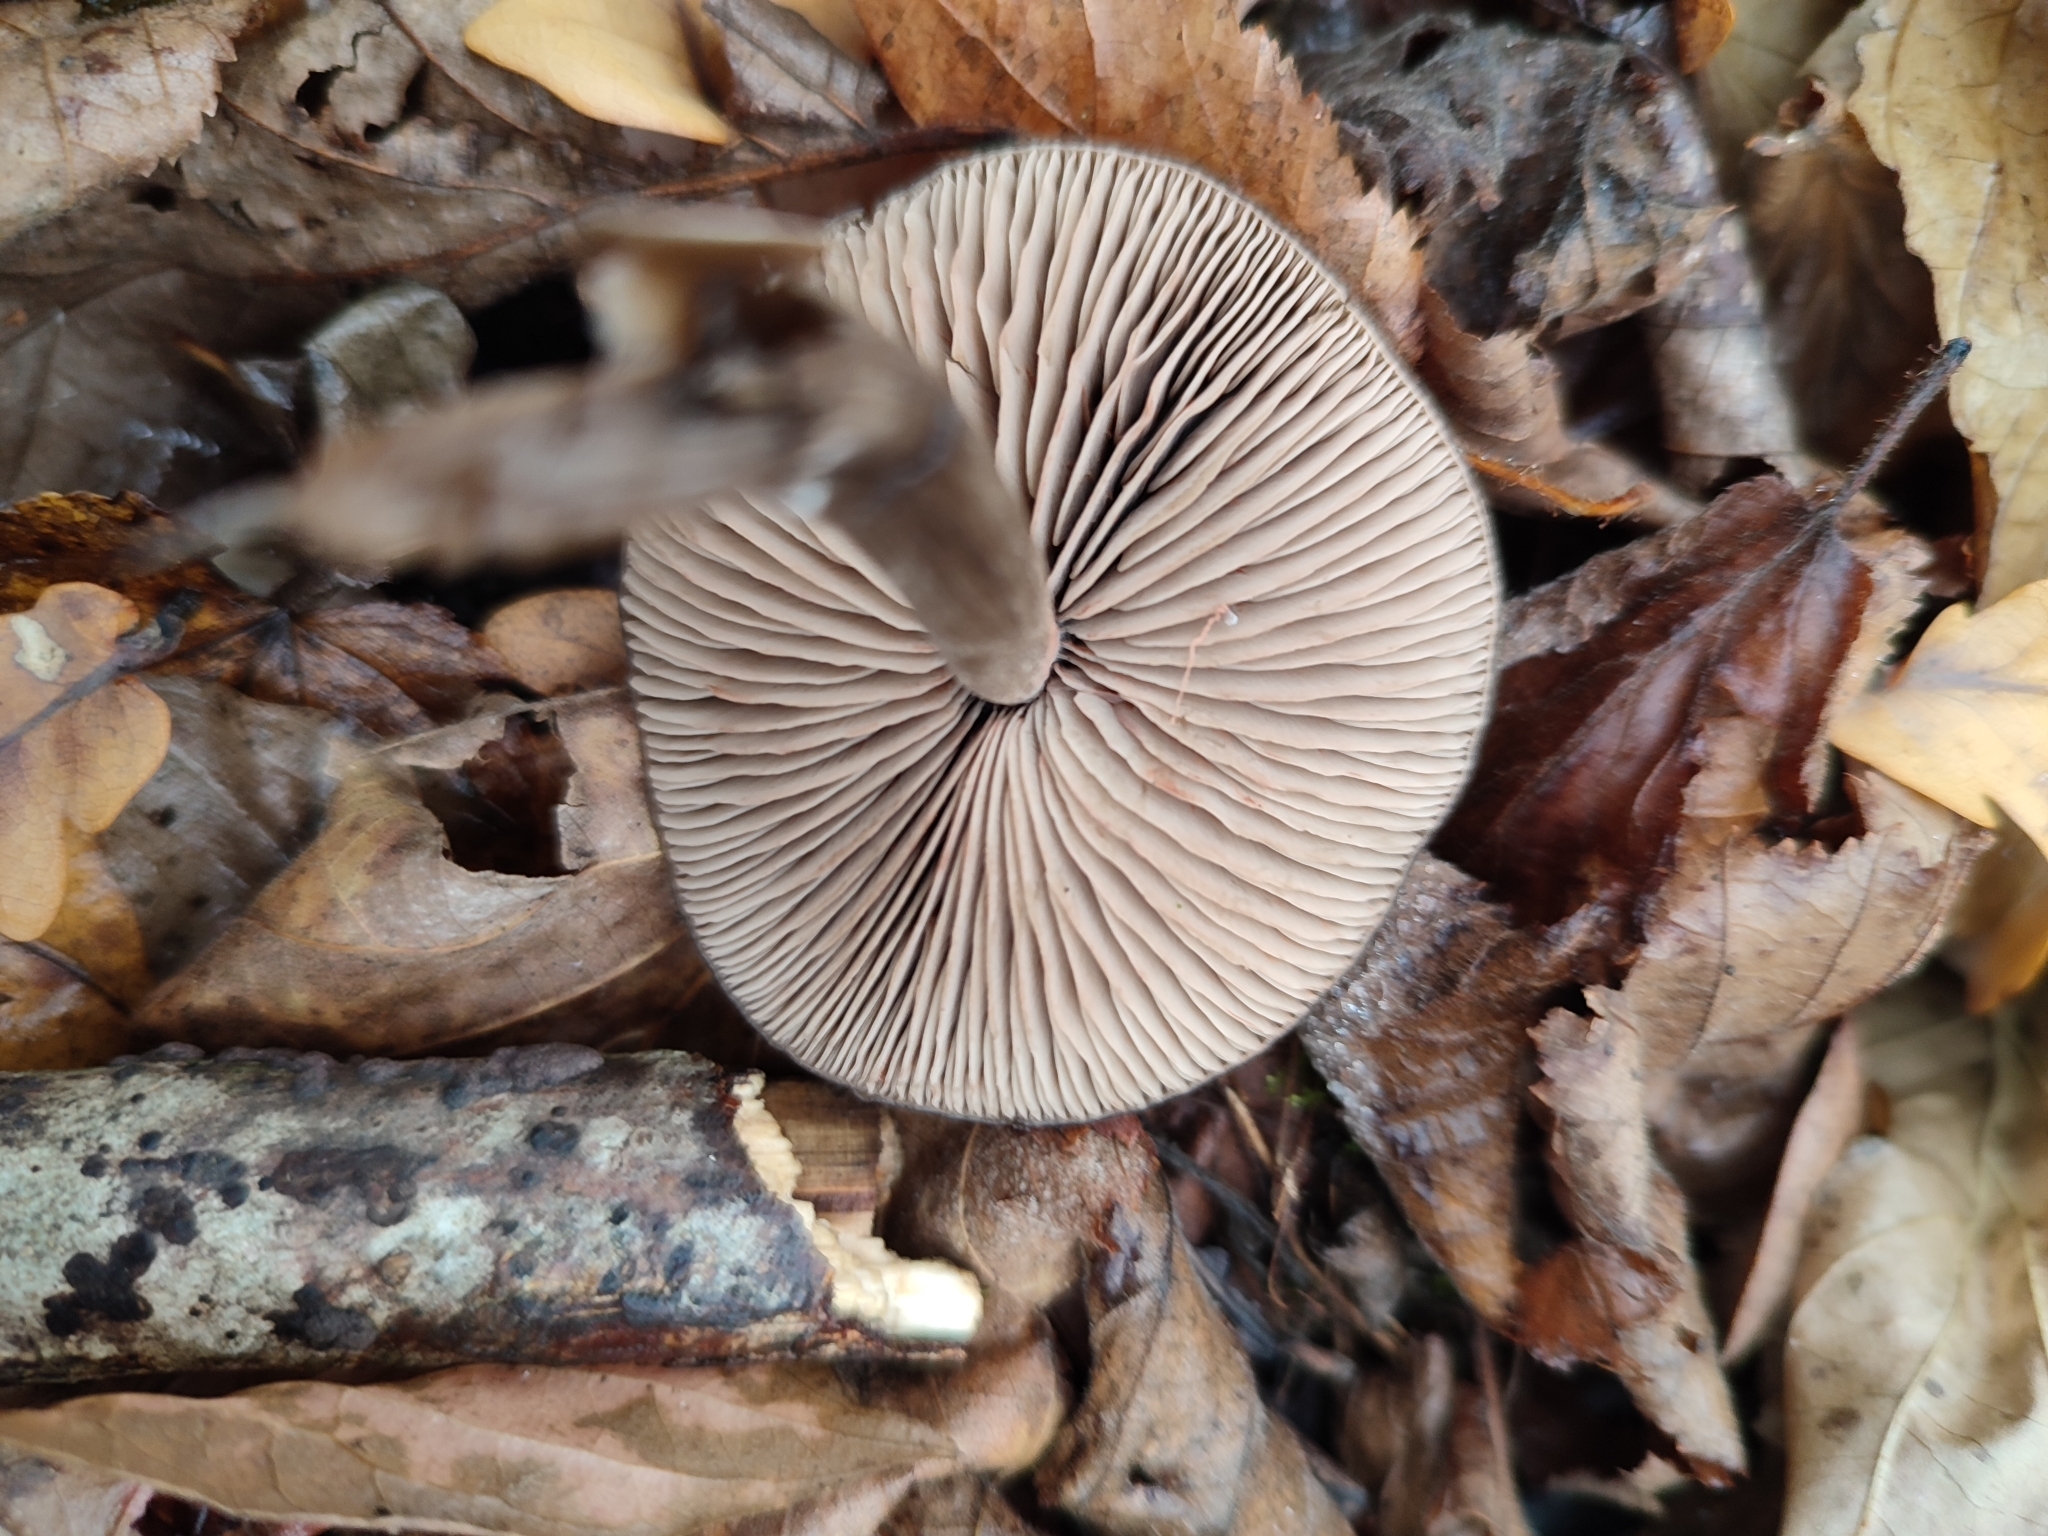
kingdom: Fungi
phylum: Basidiomycota
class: Agaricomycetes
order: Agaricales
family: Entolomataceae
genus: Entoloma
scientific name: Entoloma sericeum
